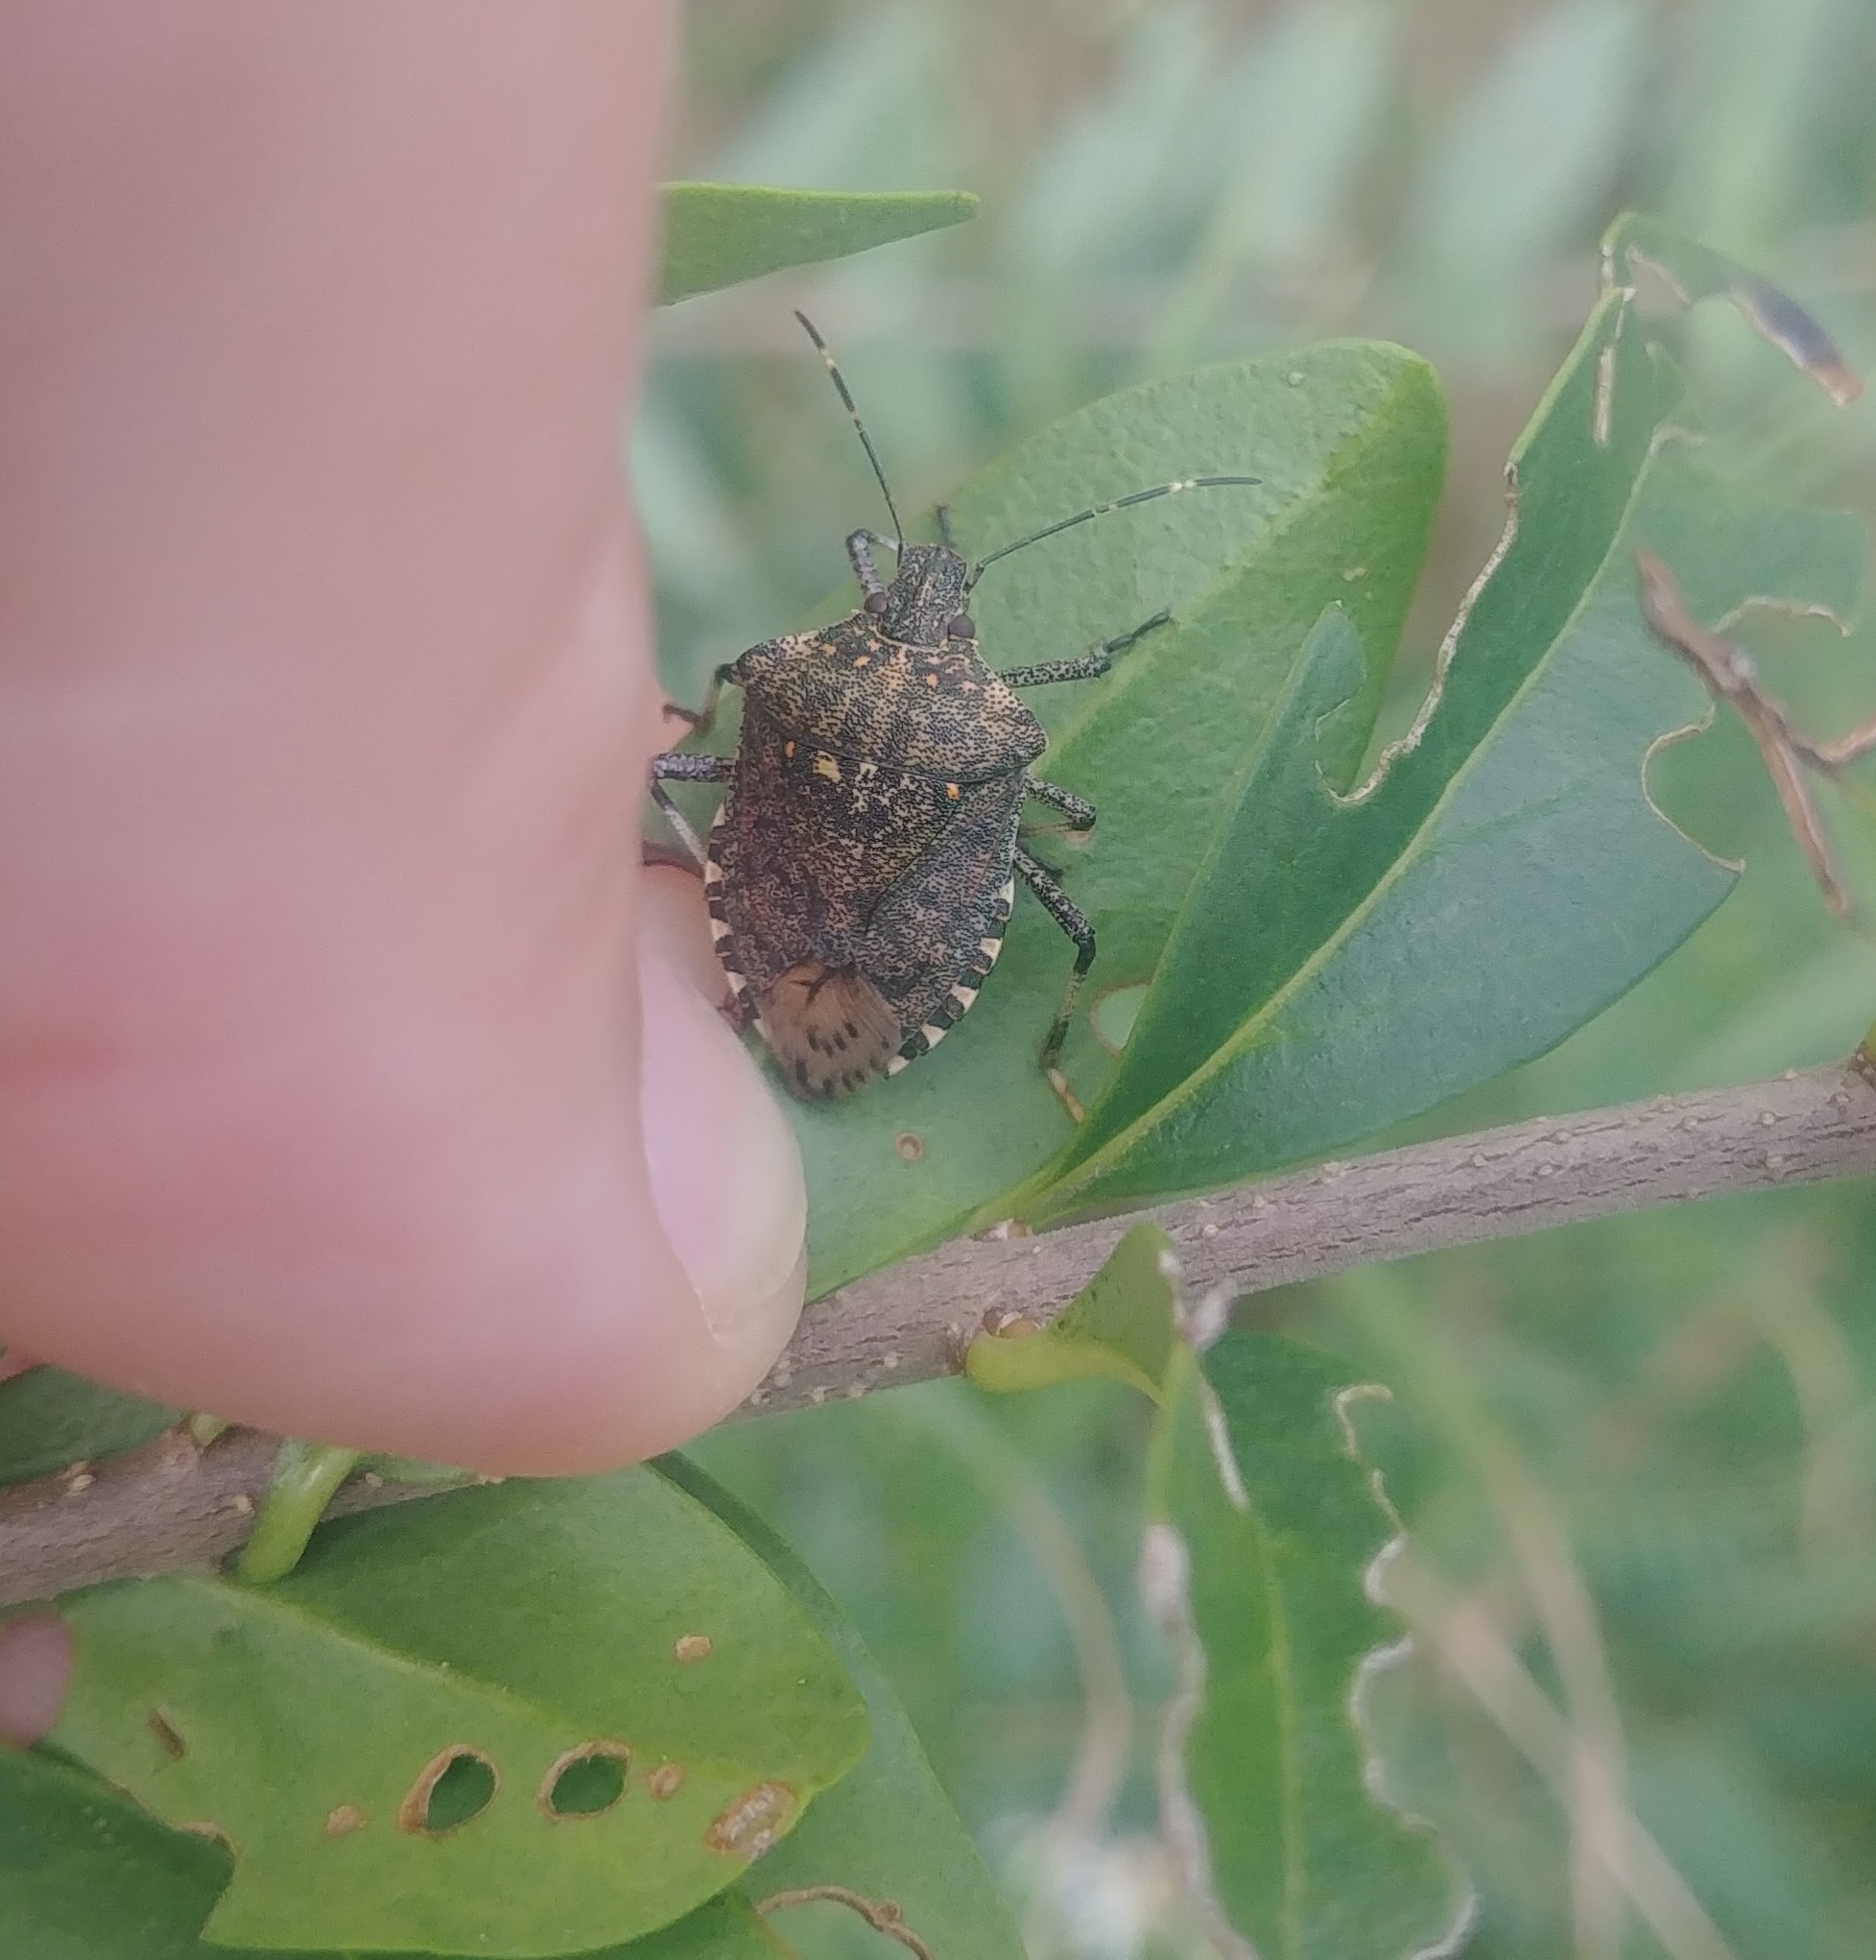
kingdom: Animalia
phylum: Arthropoda
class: Insecta
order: Hemiptera
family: Pentatomidae
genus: Halyomorpha
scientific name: Halyomorpha halys
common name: Brown marmorated stink bug
